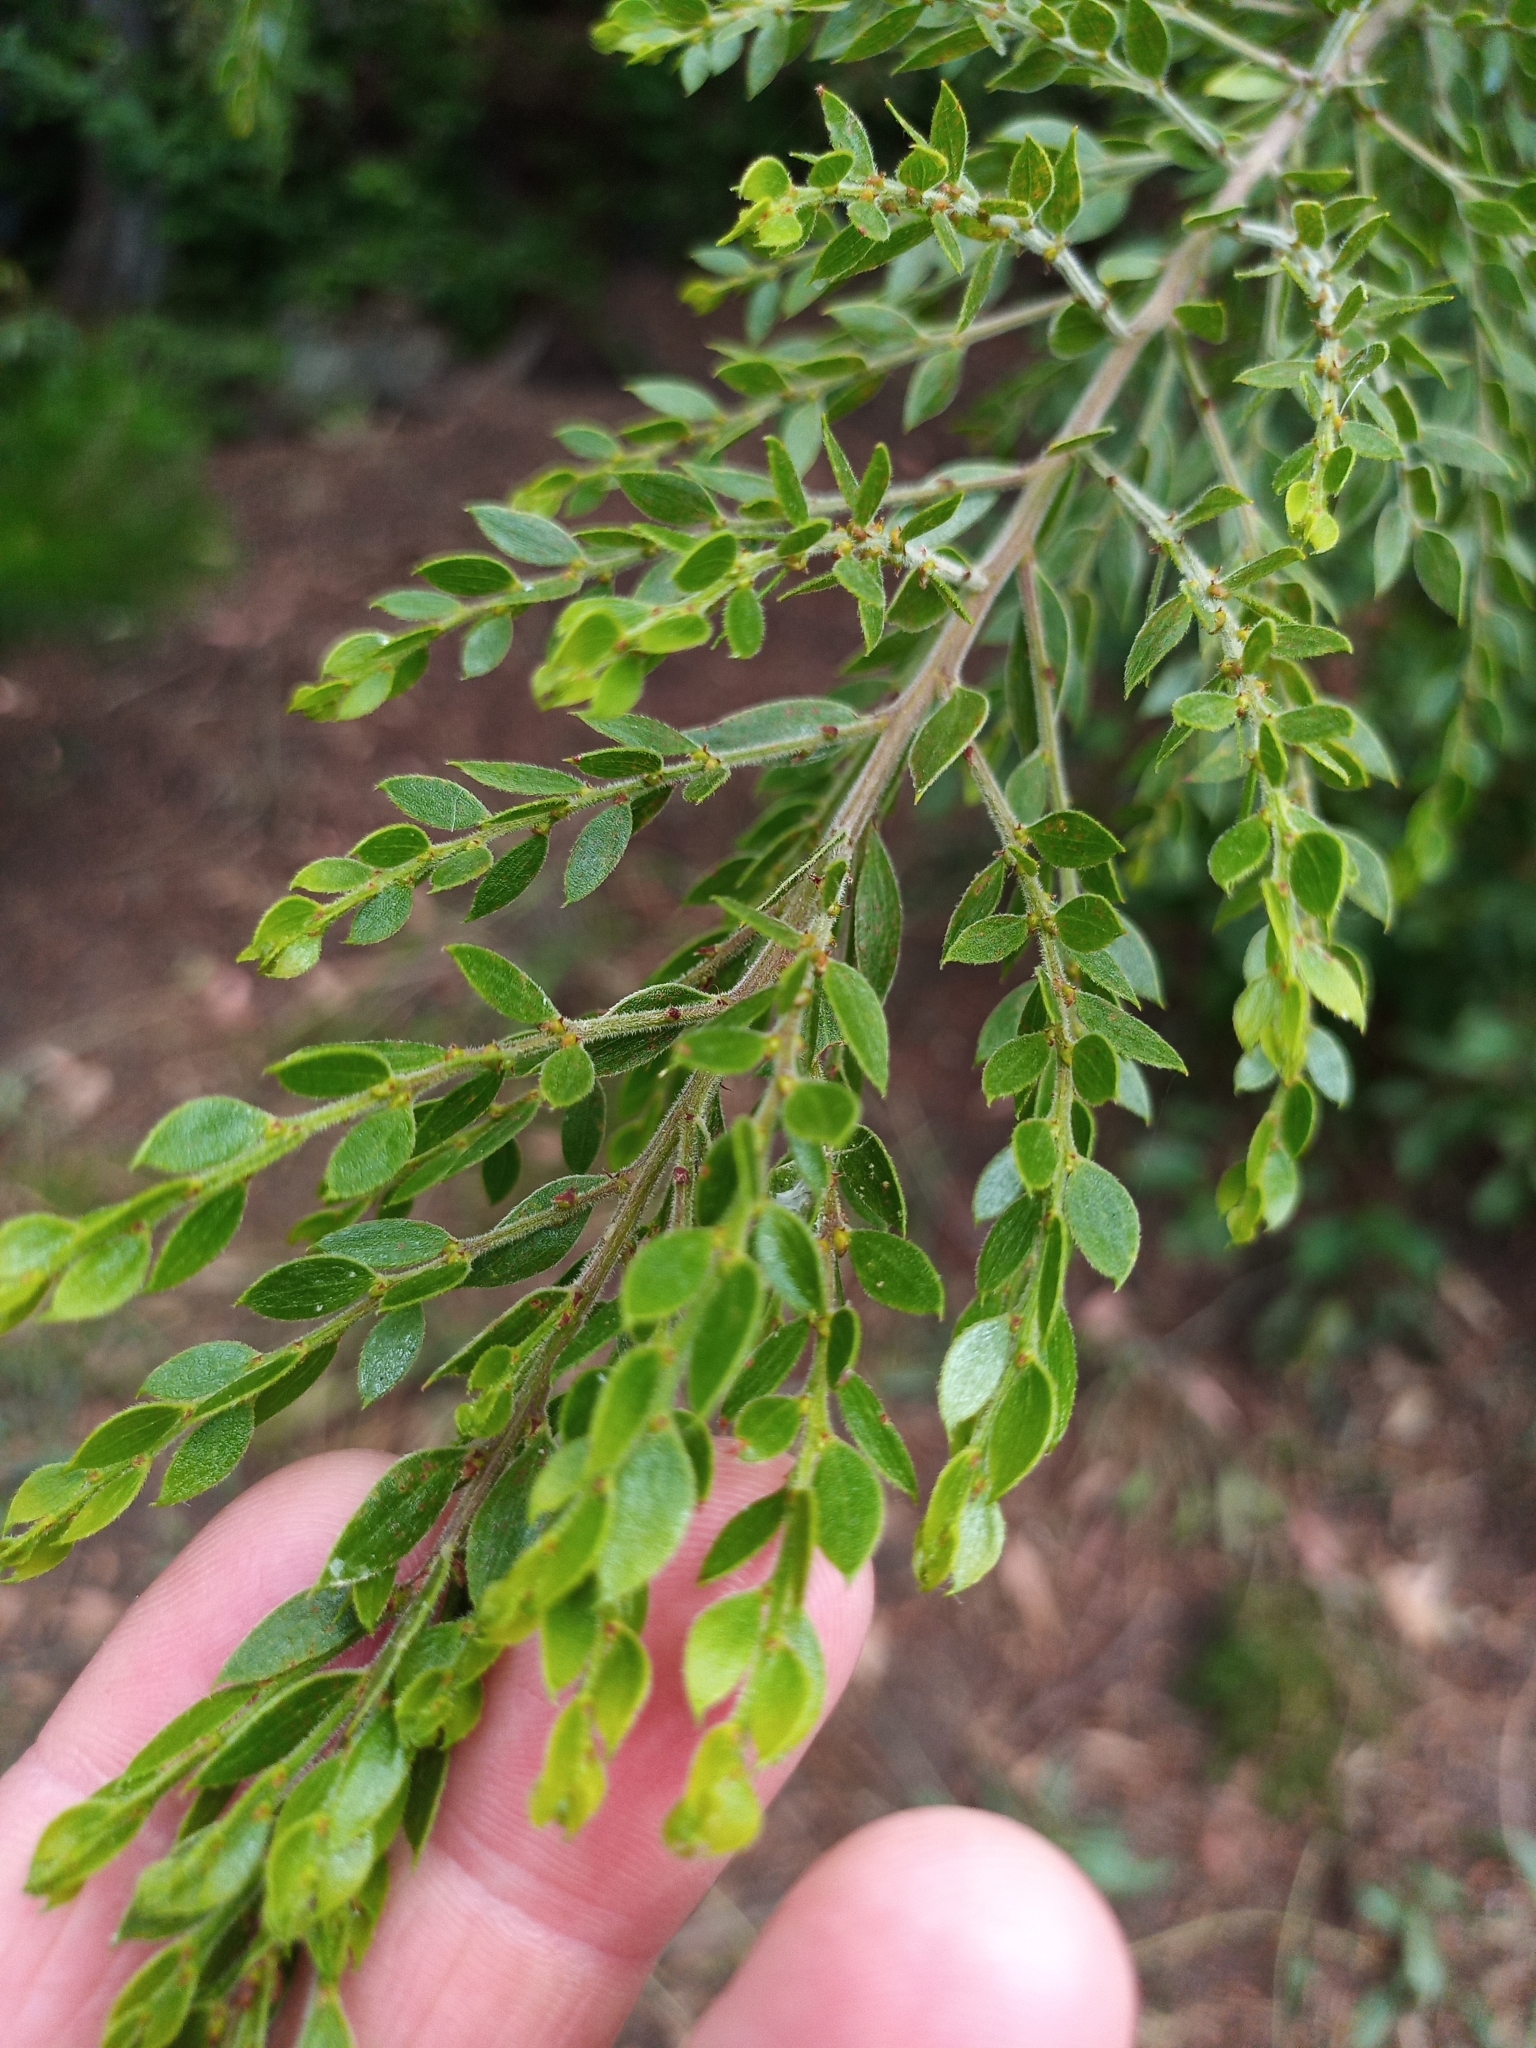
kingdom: Plantae
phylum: Tracheophyta
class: Magnoliopsida
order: Fabales
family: Fabaceae
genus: Acacia
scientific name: Acacia howittii
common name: Sticky wattle
